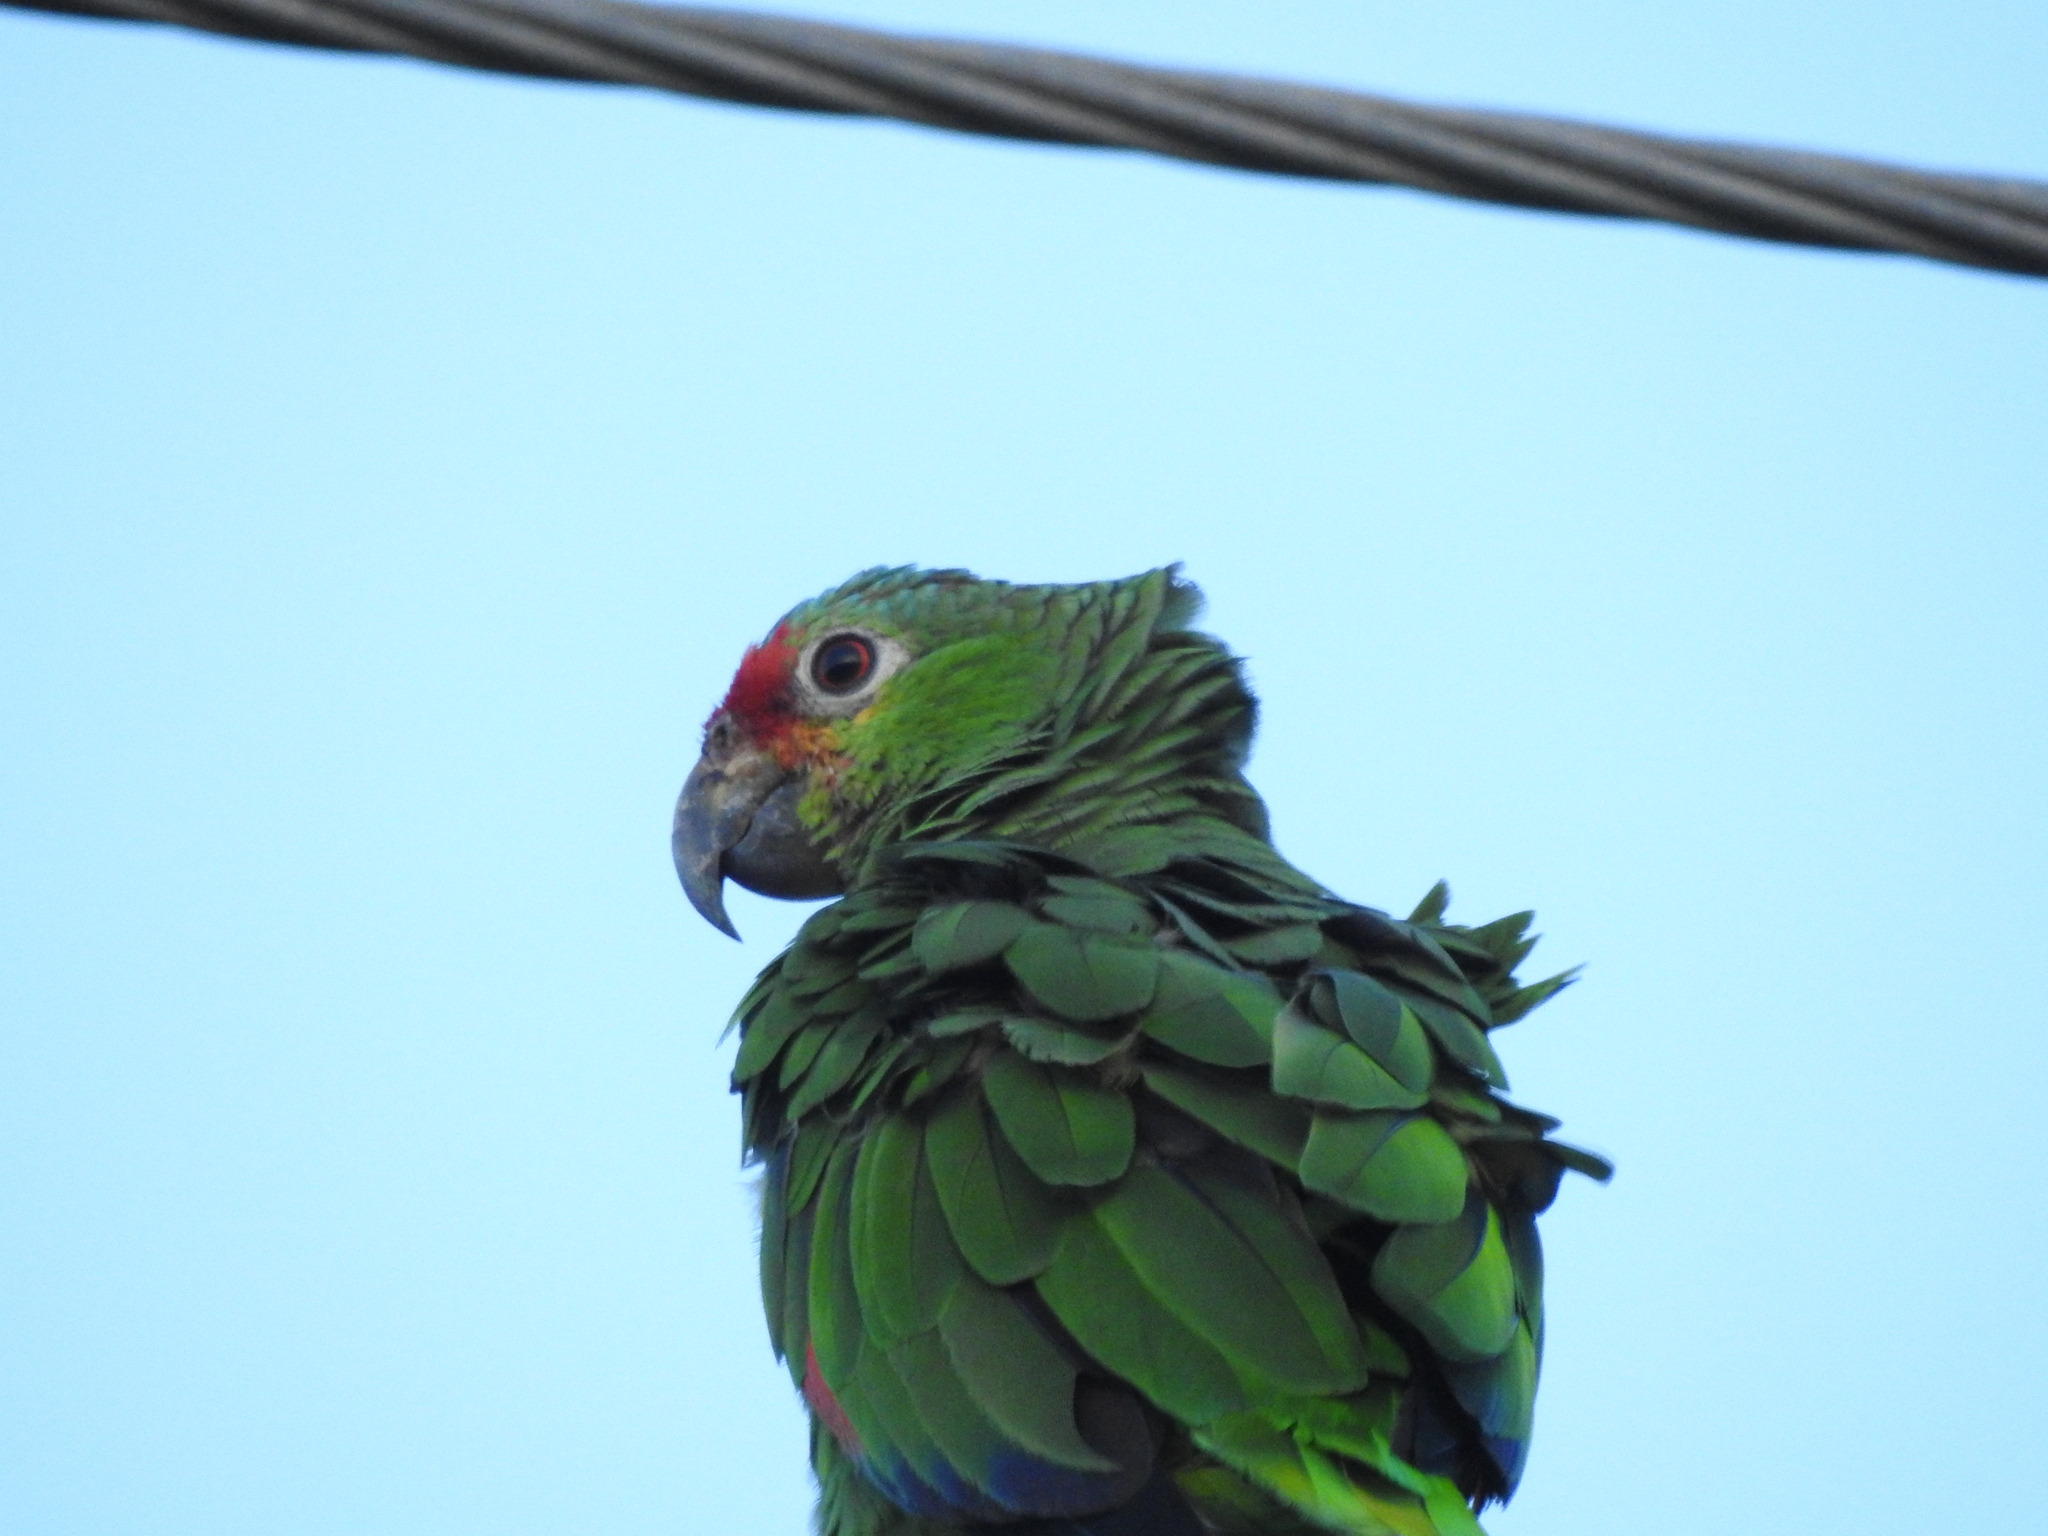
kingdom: Animalia
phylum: Chordata
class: Aves
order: Psittaciformes
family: Psittacidae
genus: Amazona
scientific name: Amazona autumnalis
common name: Red-lored amazon
